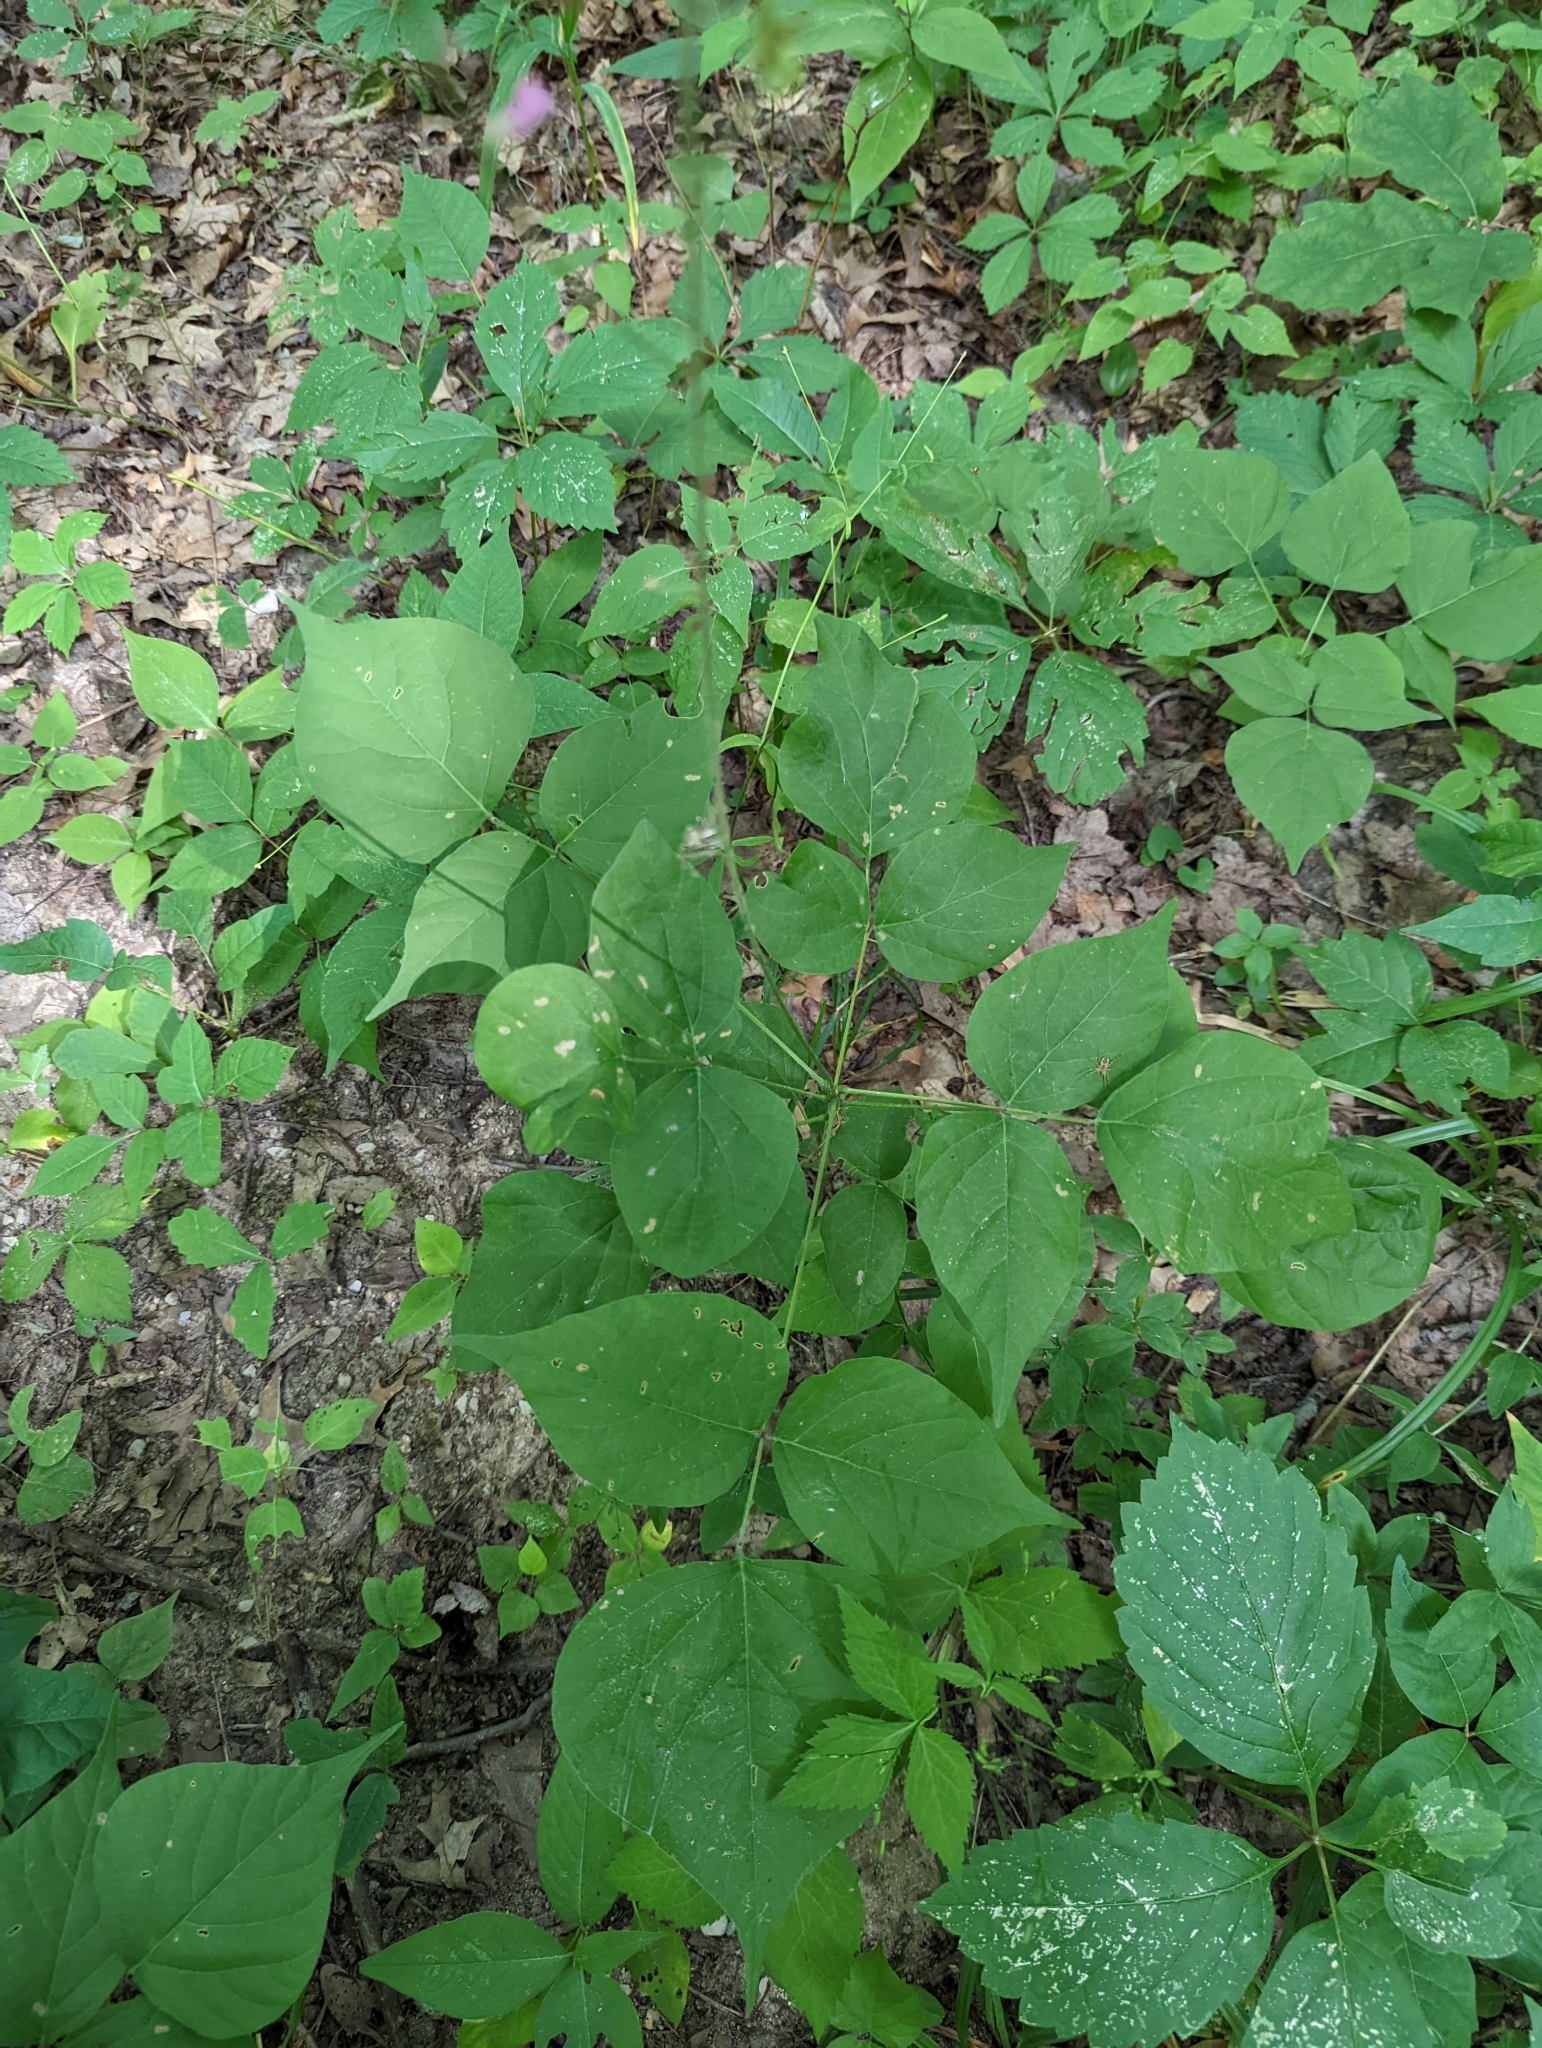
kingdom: Plantae
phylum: Tracheophyta
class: Magnoliopsida
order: Fabales
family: Fabaceae
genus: Hylodesmum
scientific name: Hylodesmum glutinosum
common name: Clustered-leaved tick-trefoil
